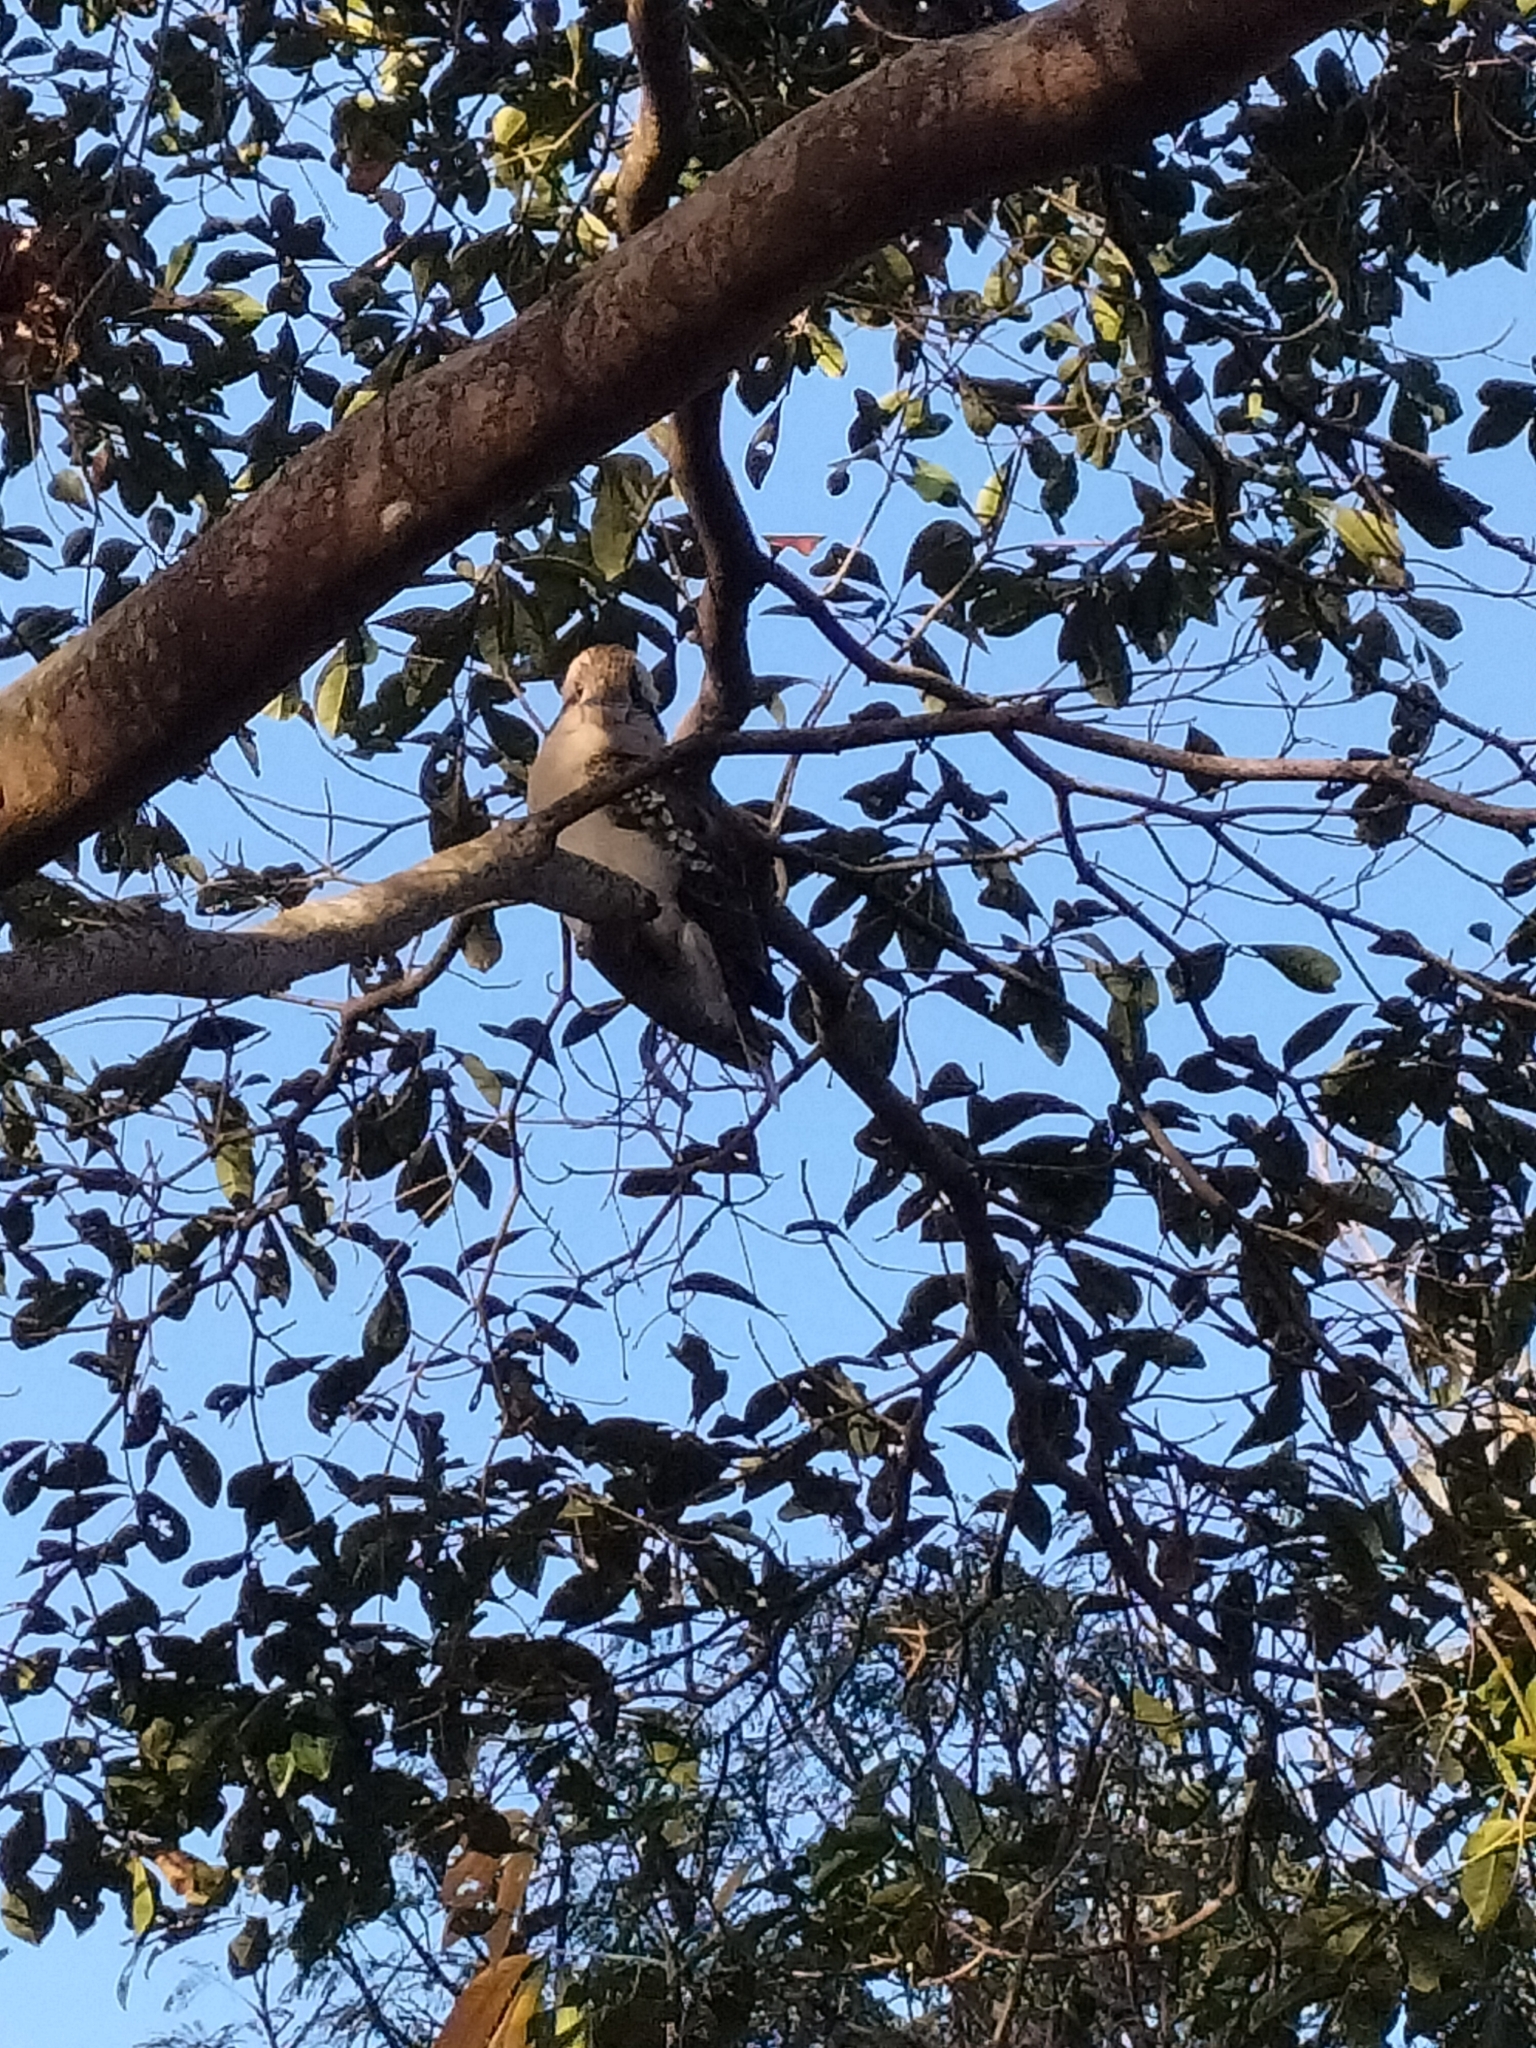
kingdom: Animalia
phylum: Chordata
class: Aves
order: Coraciiformes
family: Alcedinidae
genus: Dacelo
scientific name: Dacelo novaeguineae
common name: Laughing kookaburra
